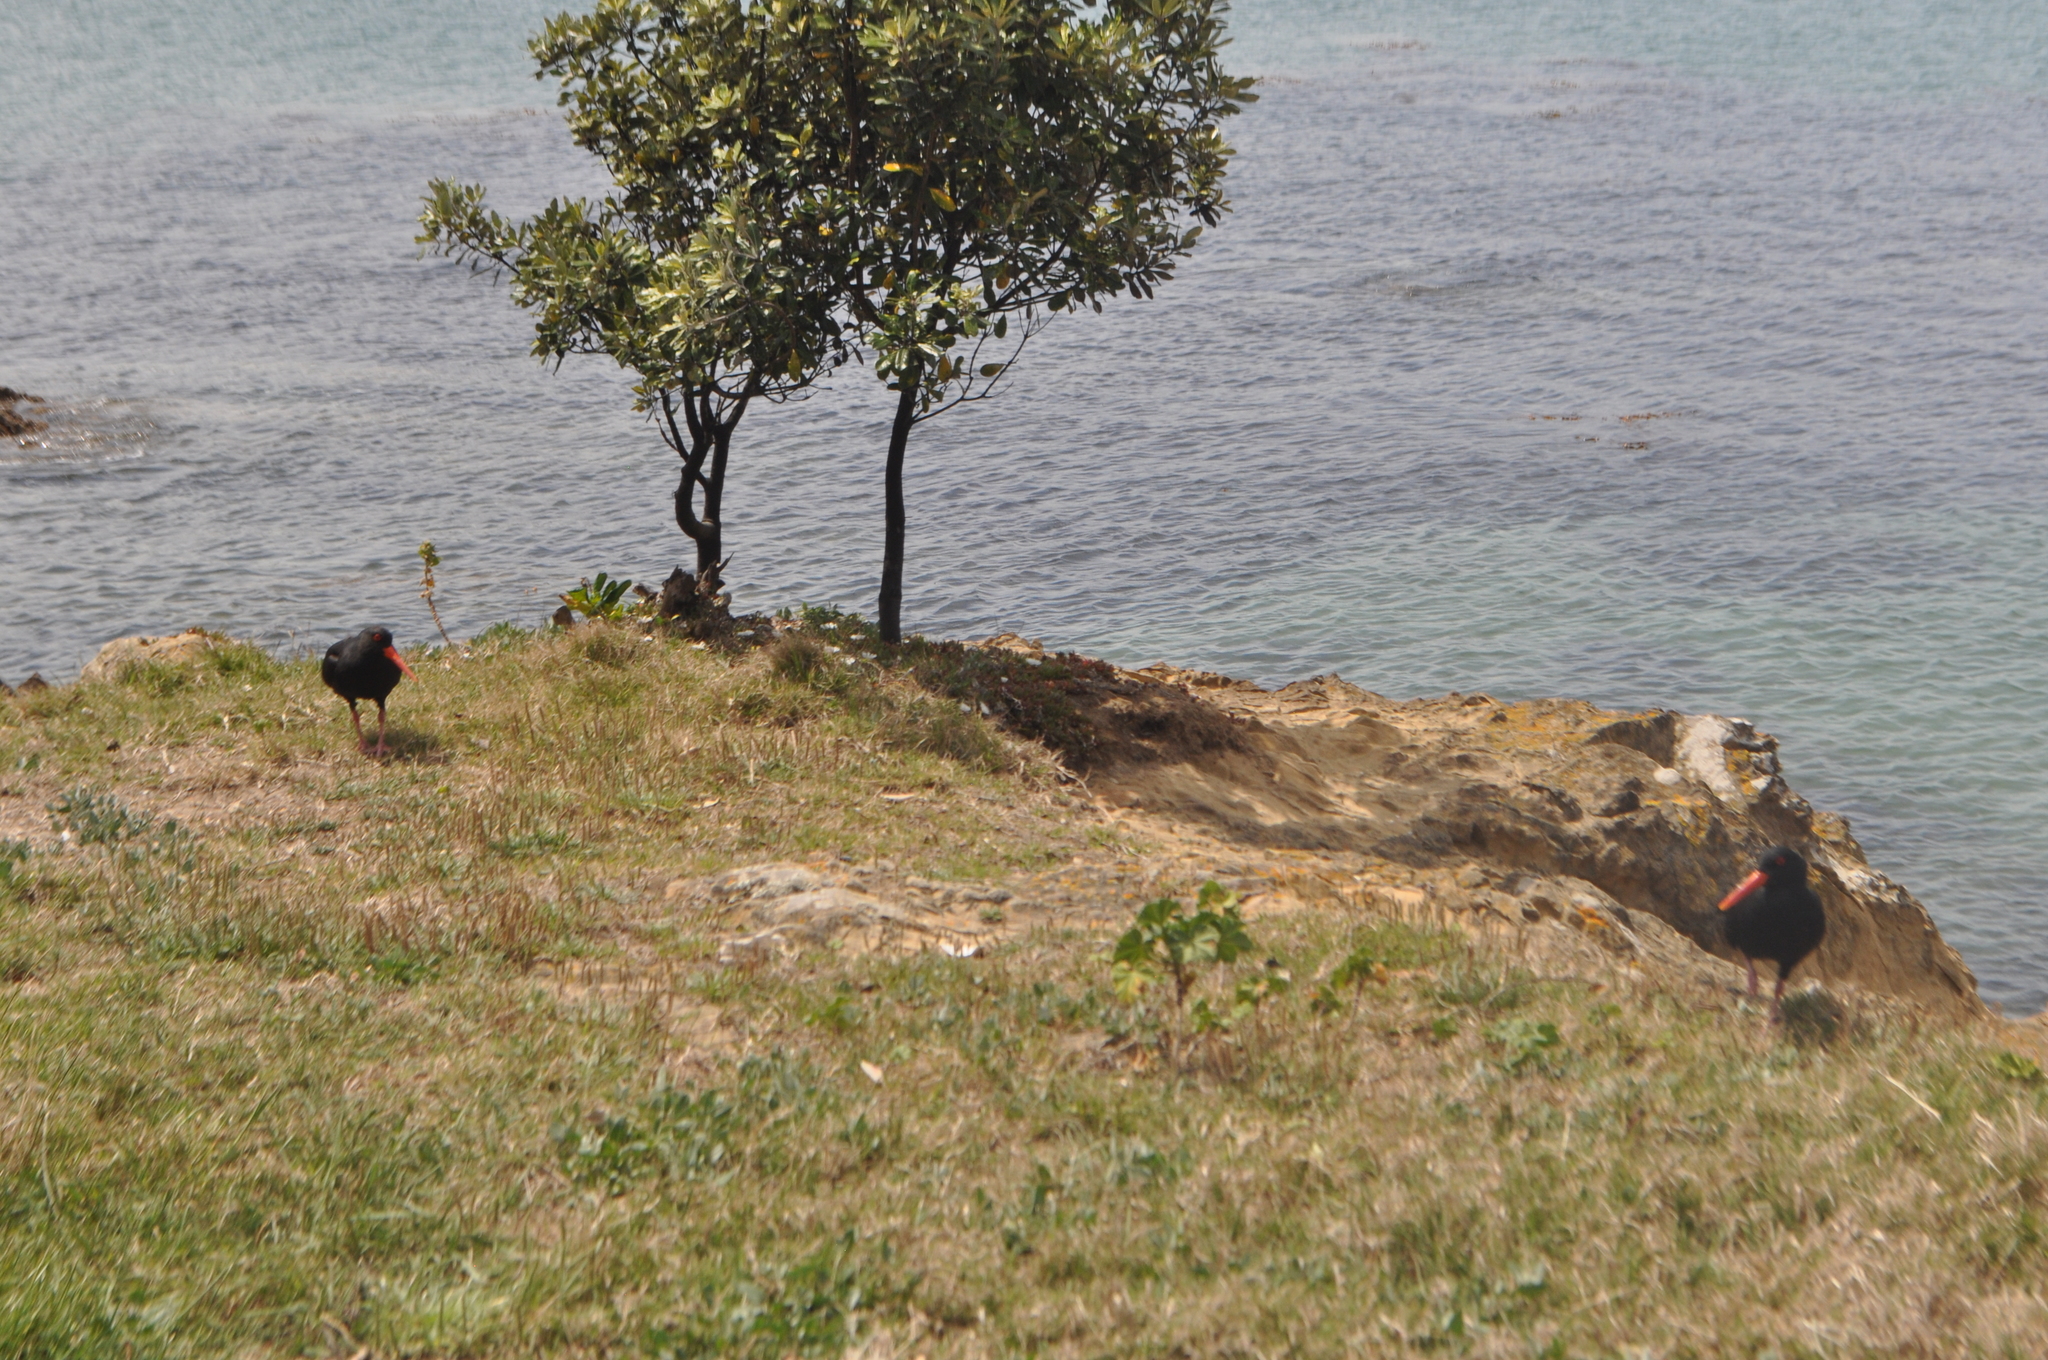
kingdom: Animalia
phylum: Chordata
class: Aves
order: Charadriiformes
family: Haematopodidae
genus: Haematopus
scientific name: Haematopus unicolor
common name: Variable oystercatcher
